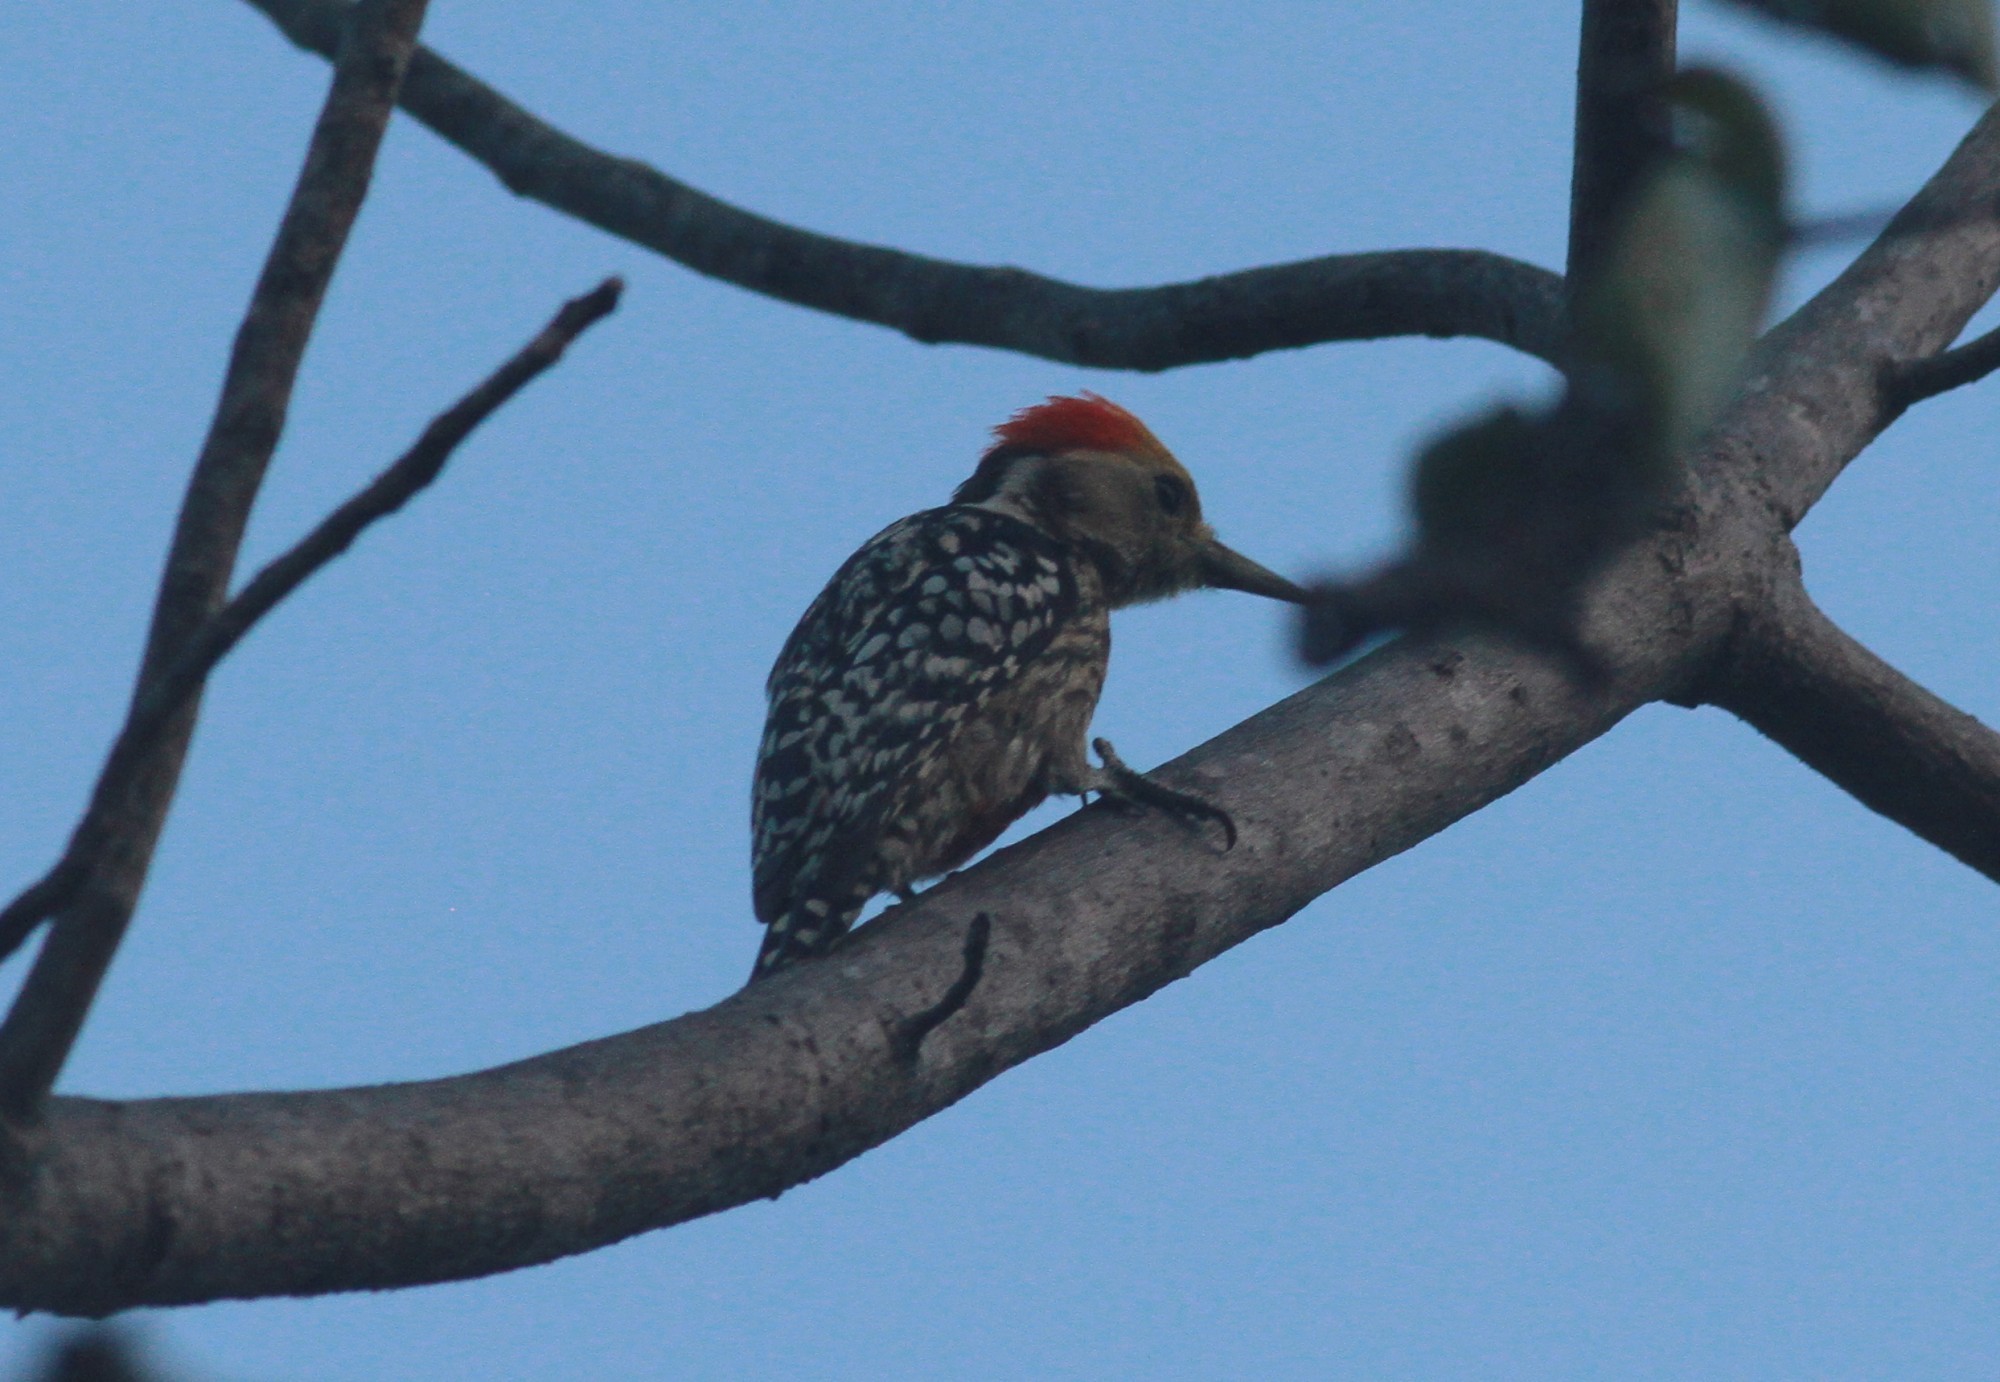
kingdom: Animalia
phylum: Chordata
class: Aves
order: Piciformes
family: Picidae
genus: Leiopicus
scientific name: Leiopicus mahrattensis
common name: Yellow-crowned woodpecker
